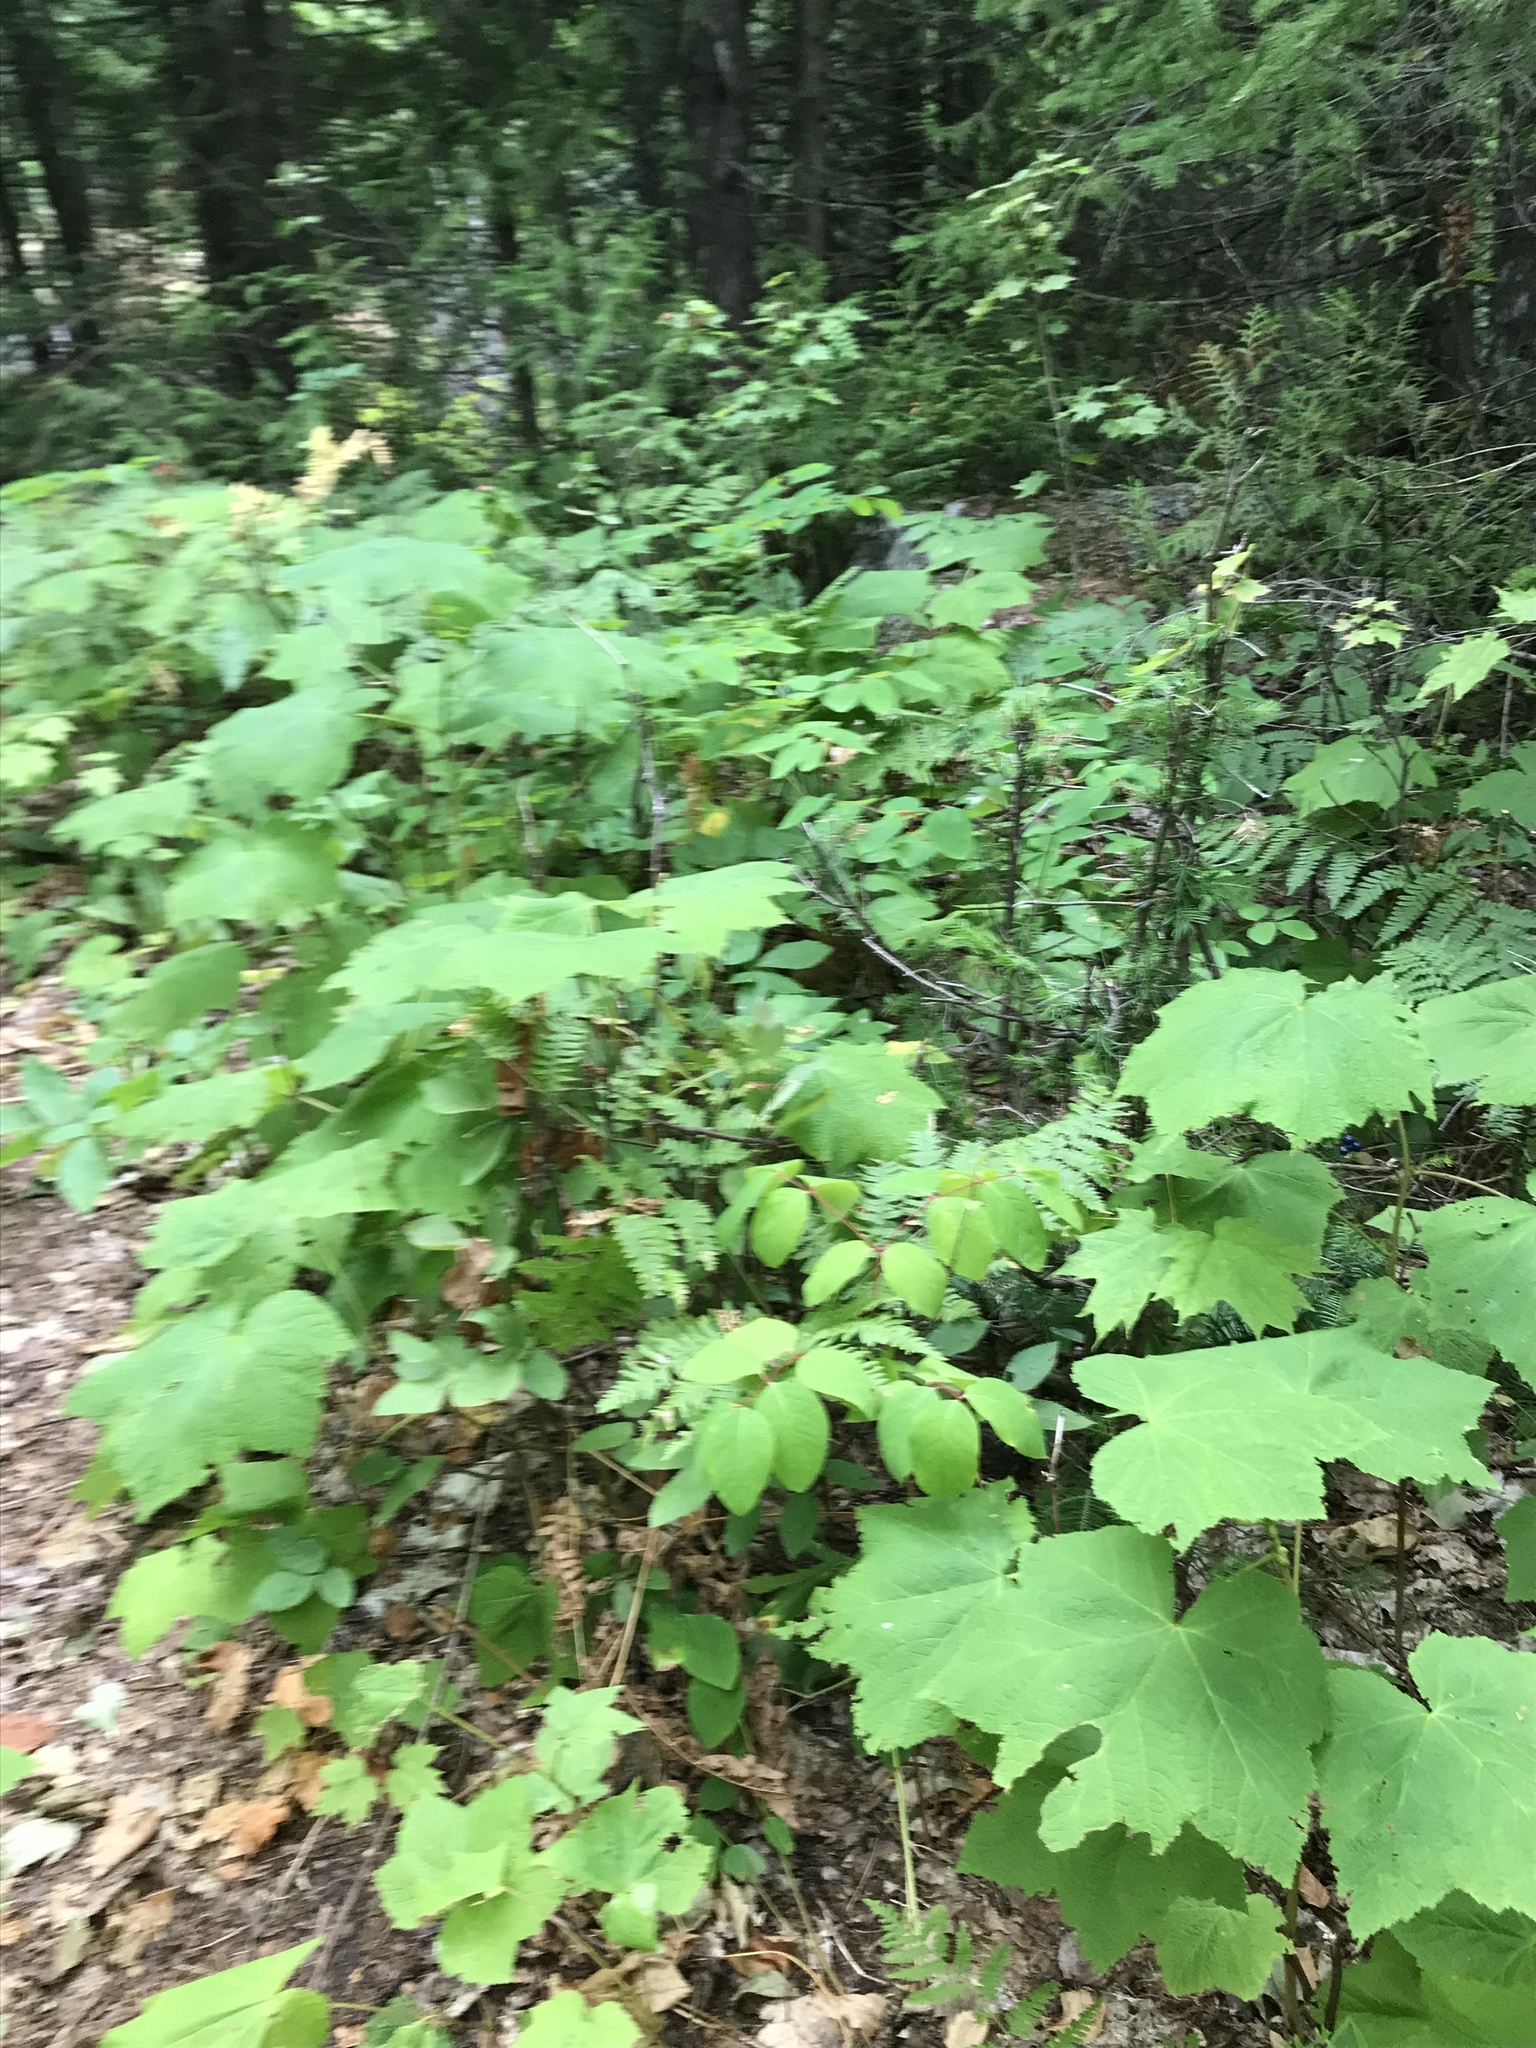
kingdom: Plantae
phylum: Tracheophyta
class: Magnoliopsida
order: Rosales
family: Rosaceae
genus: Rubus
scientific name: Rubus parviflorus
